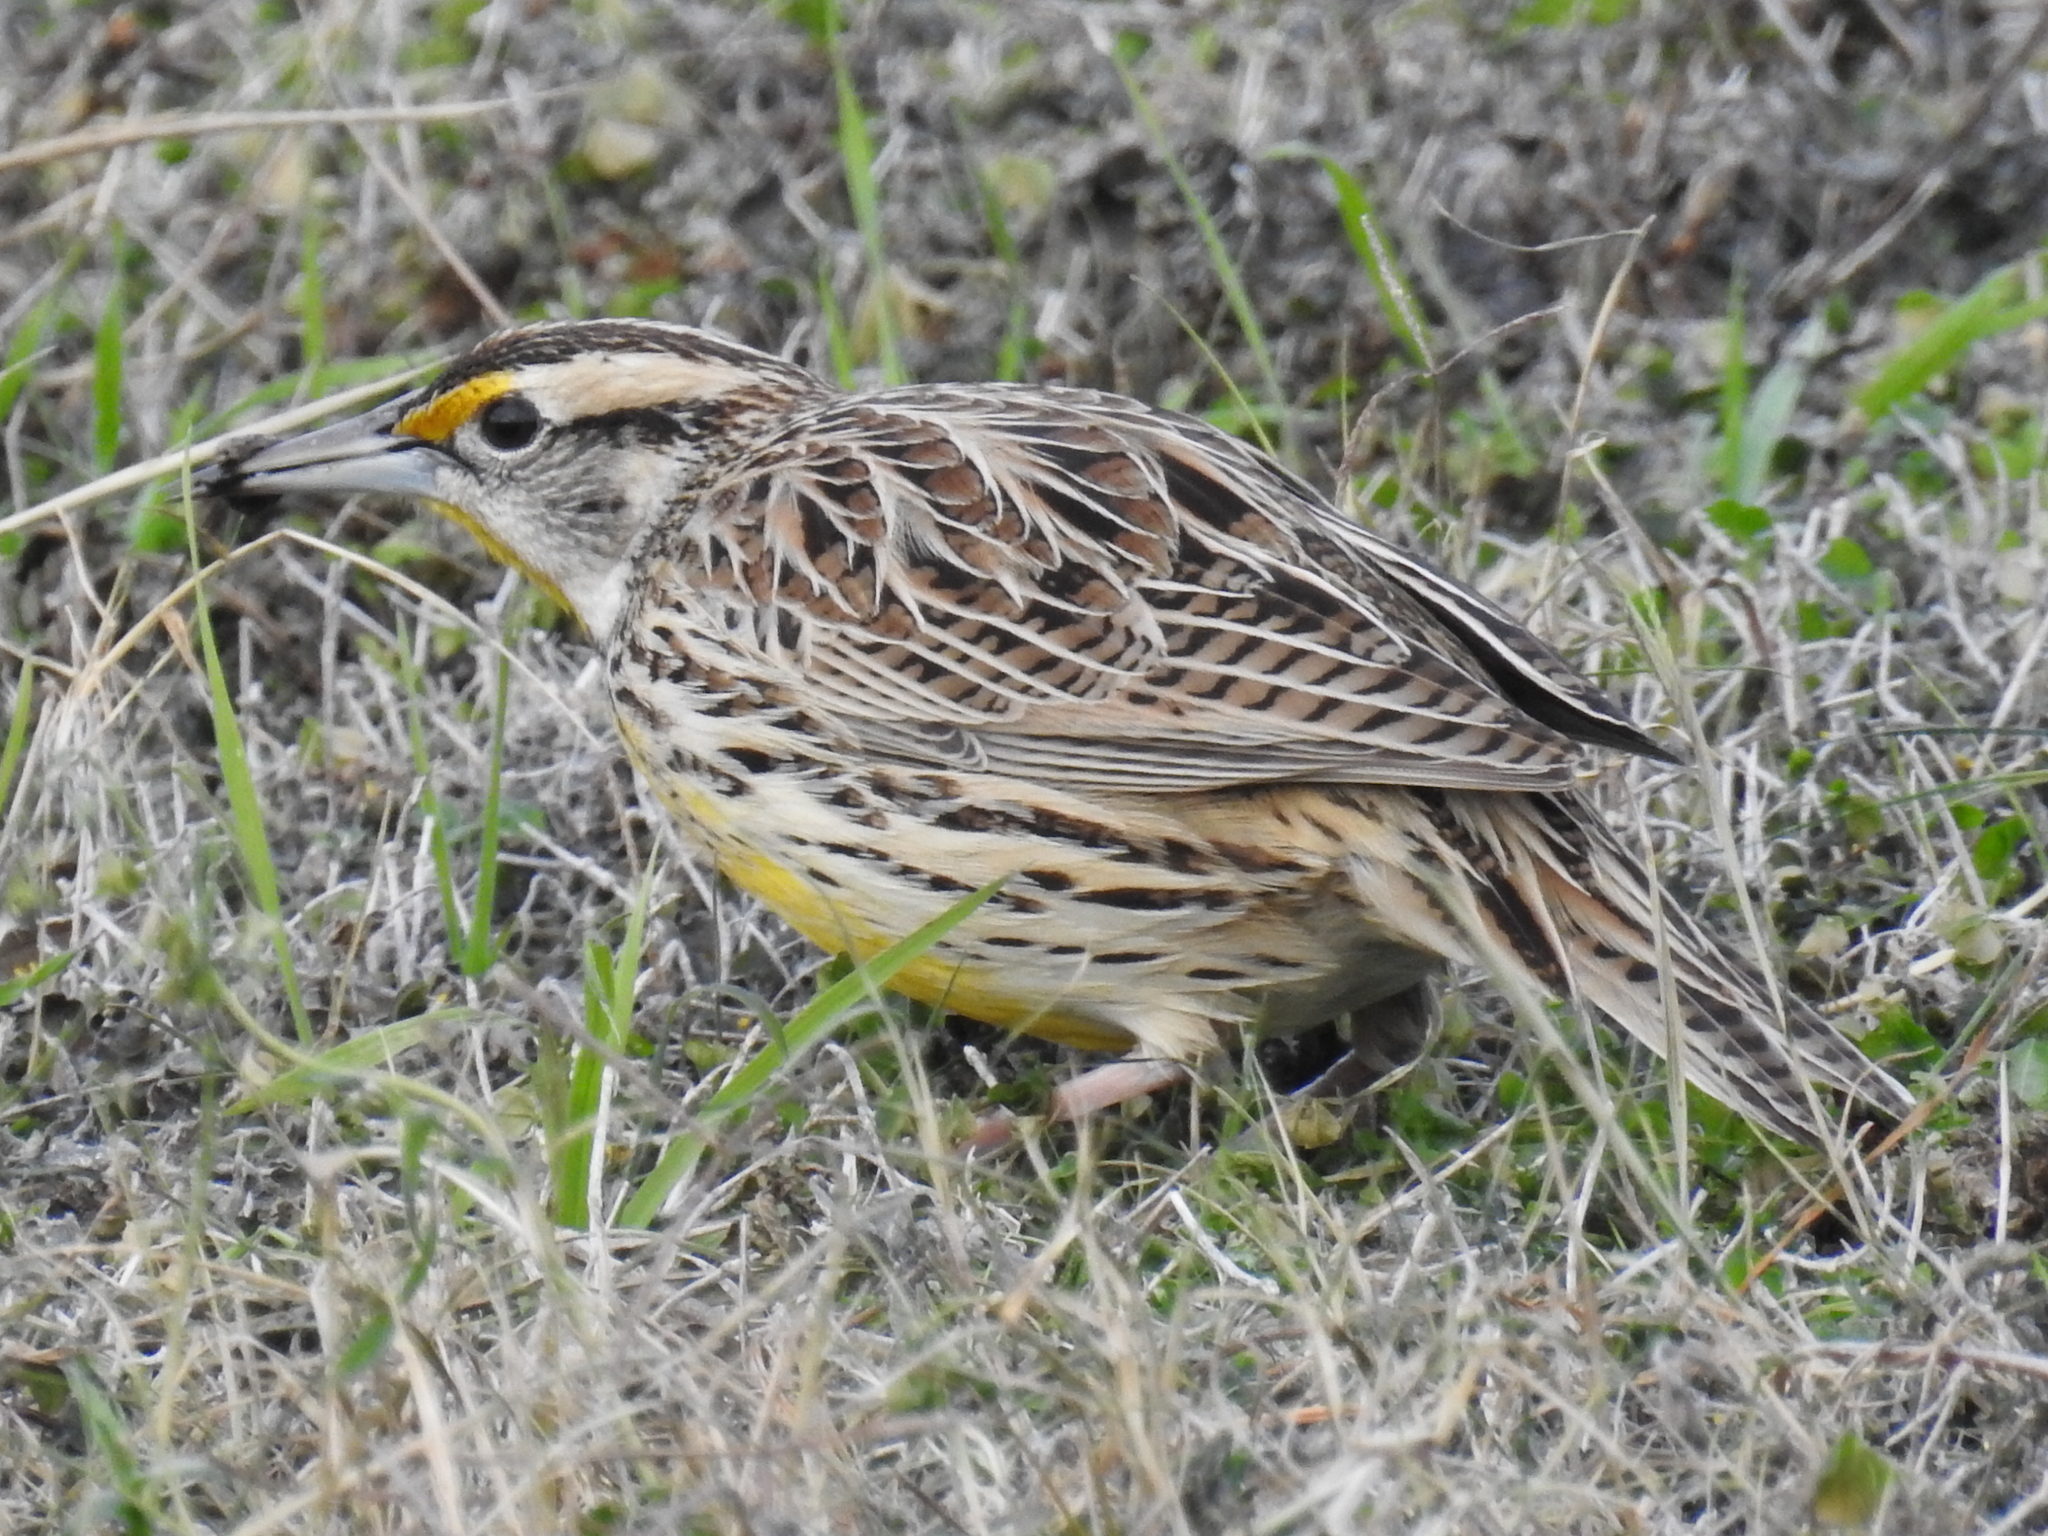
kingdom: Animalia
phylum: Chordata
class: Aves
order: Passeriformes
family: Icteridae
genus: Sturnella
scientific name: Sturnella magna
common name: Eastern meadowlark
